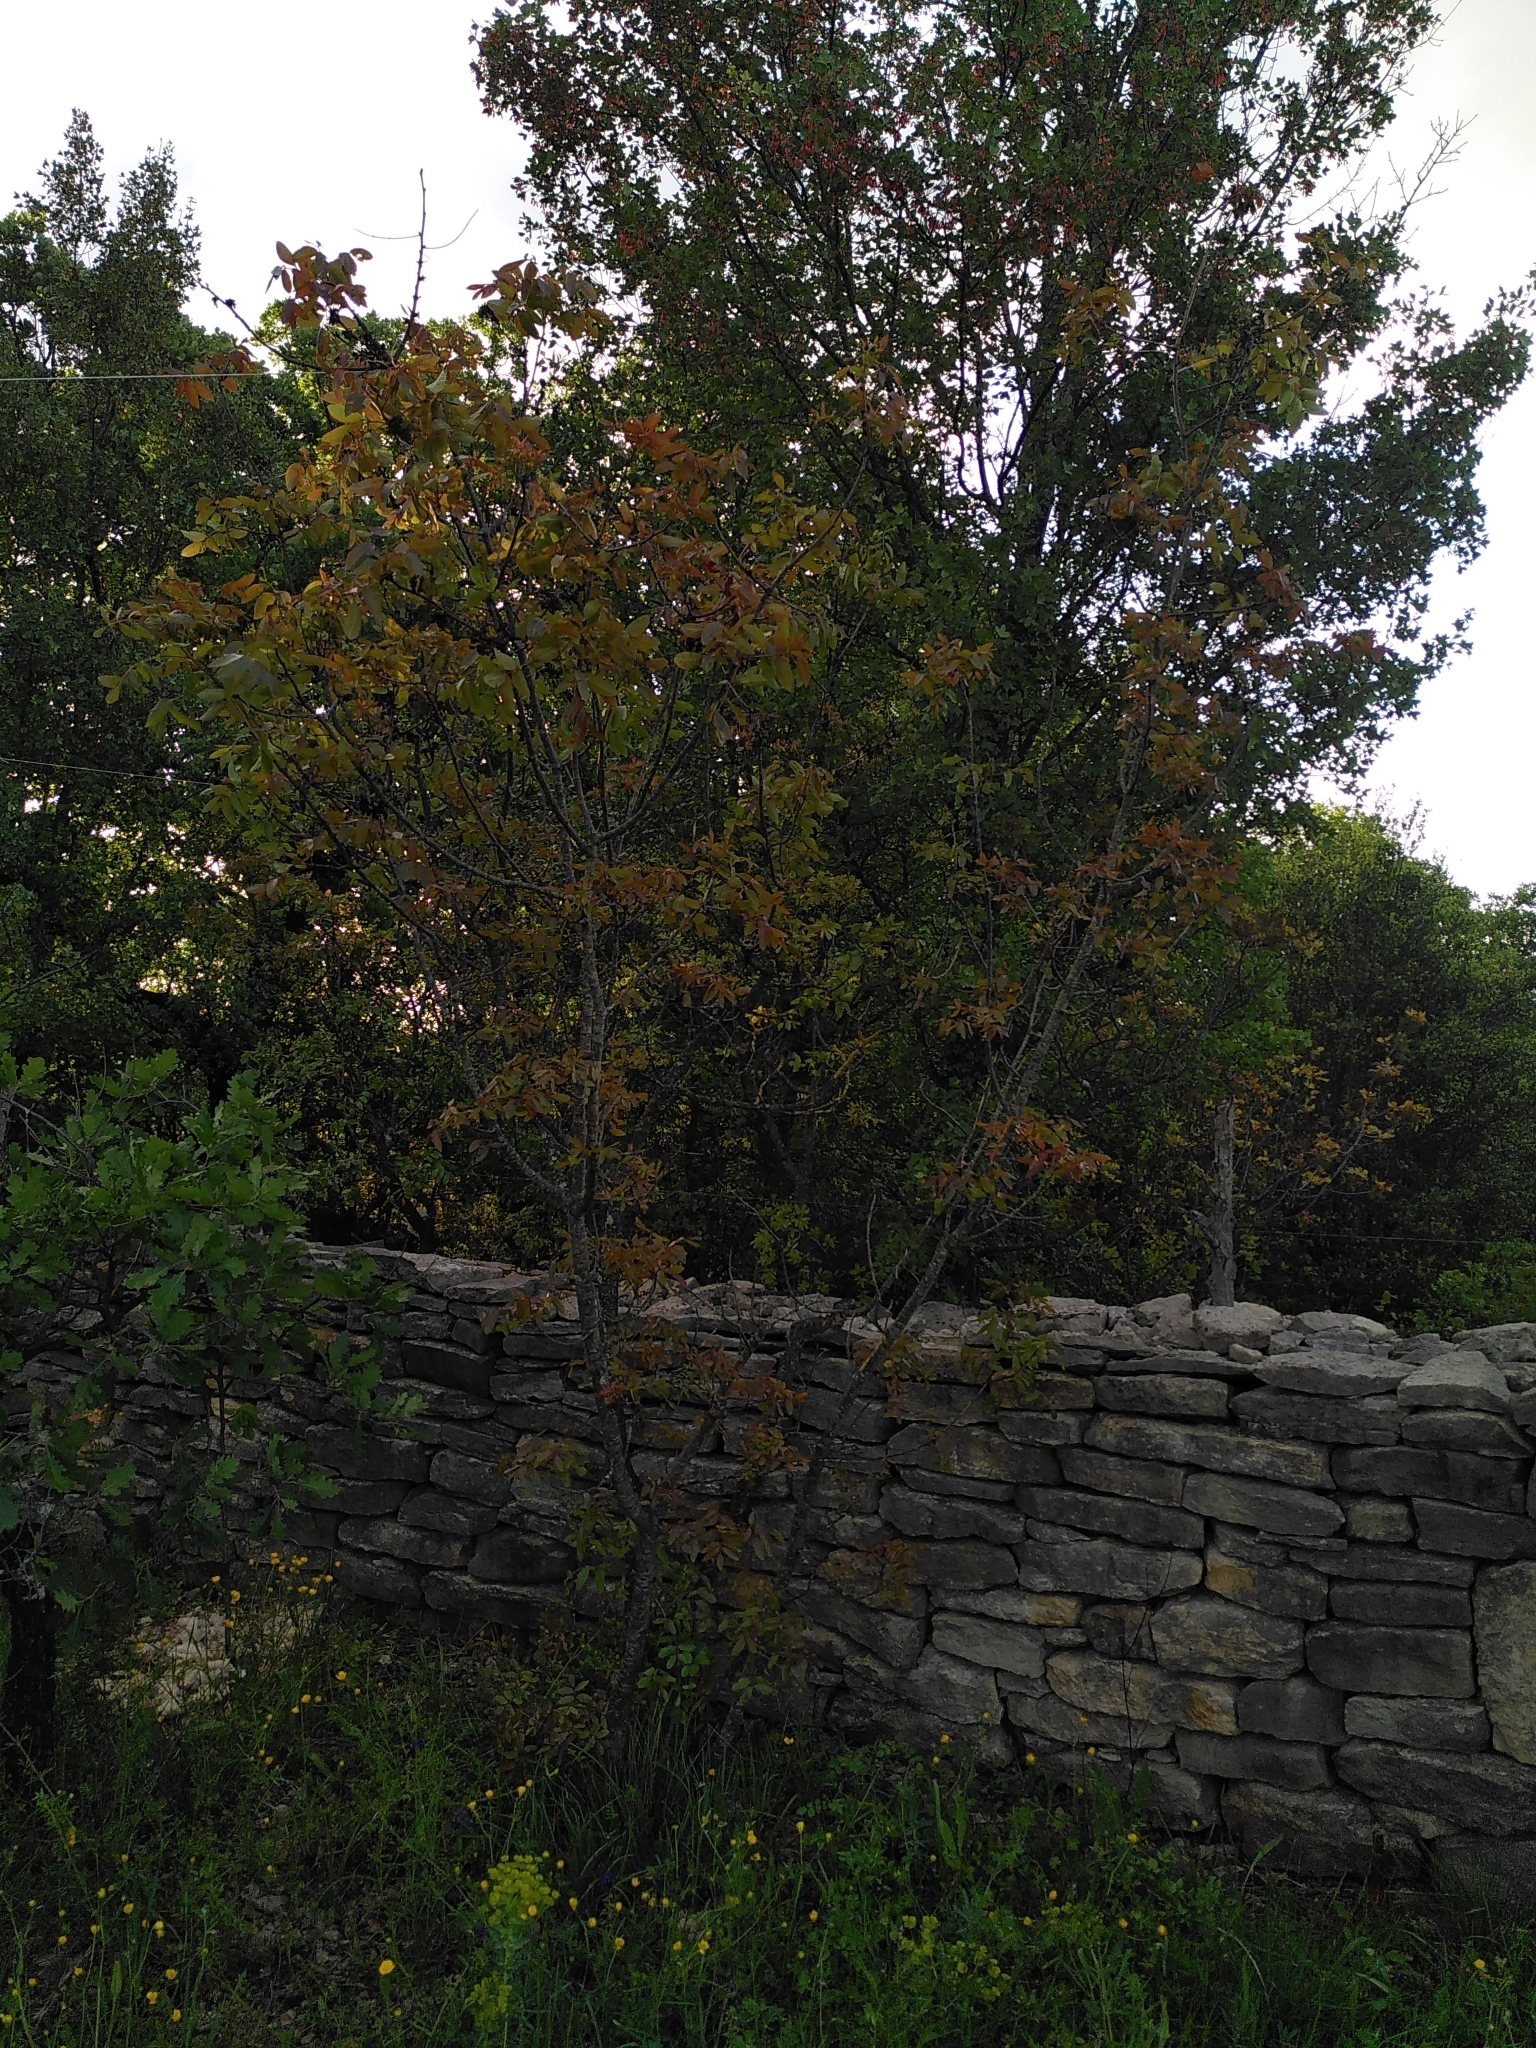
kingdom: Plantae
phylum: Tracheophyta
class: Magnoliopsida
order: Sapindales
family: Anacardiaceae
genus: Pistacia
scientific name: Pistacia terebinthus
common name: Terebinth
